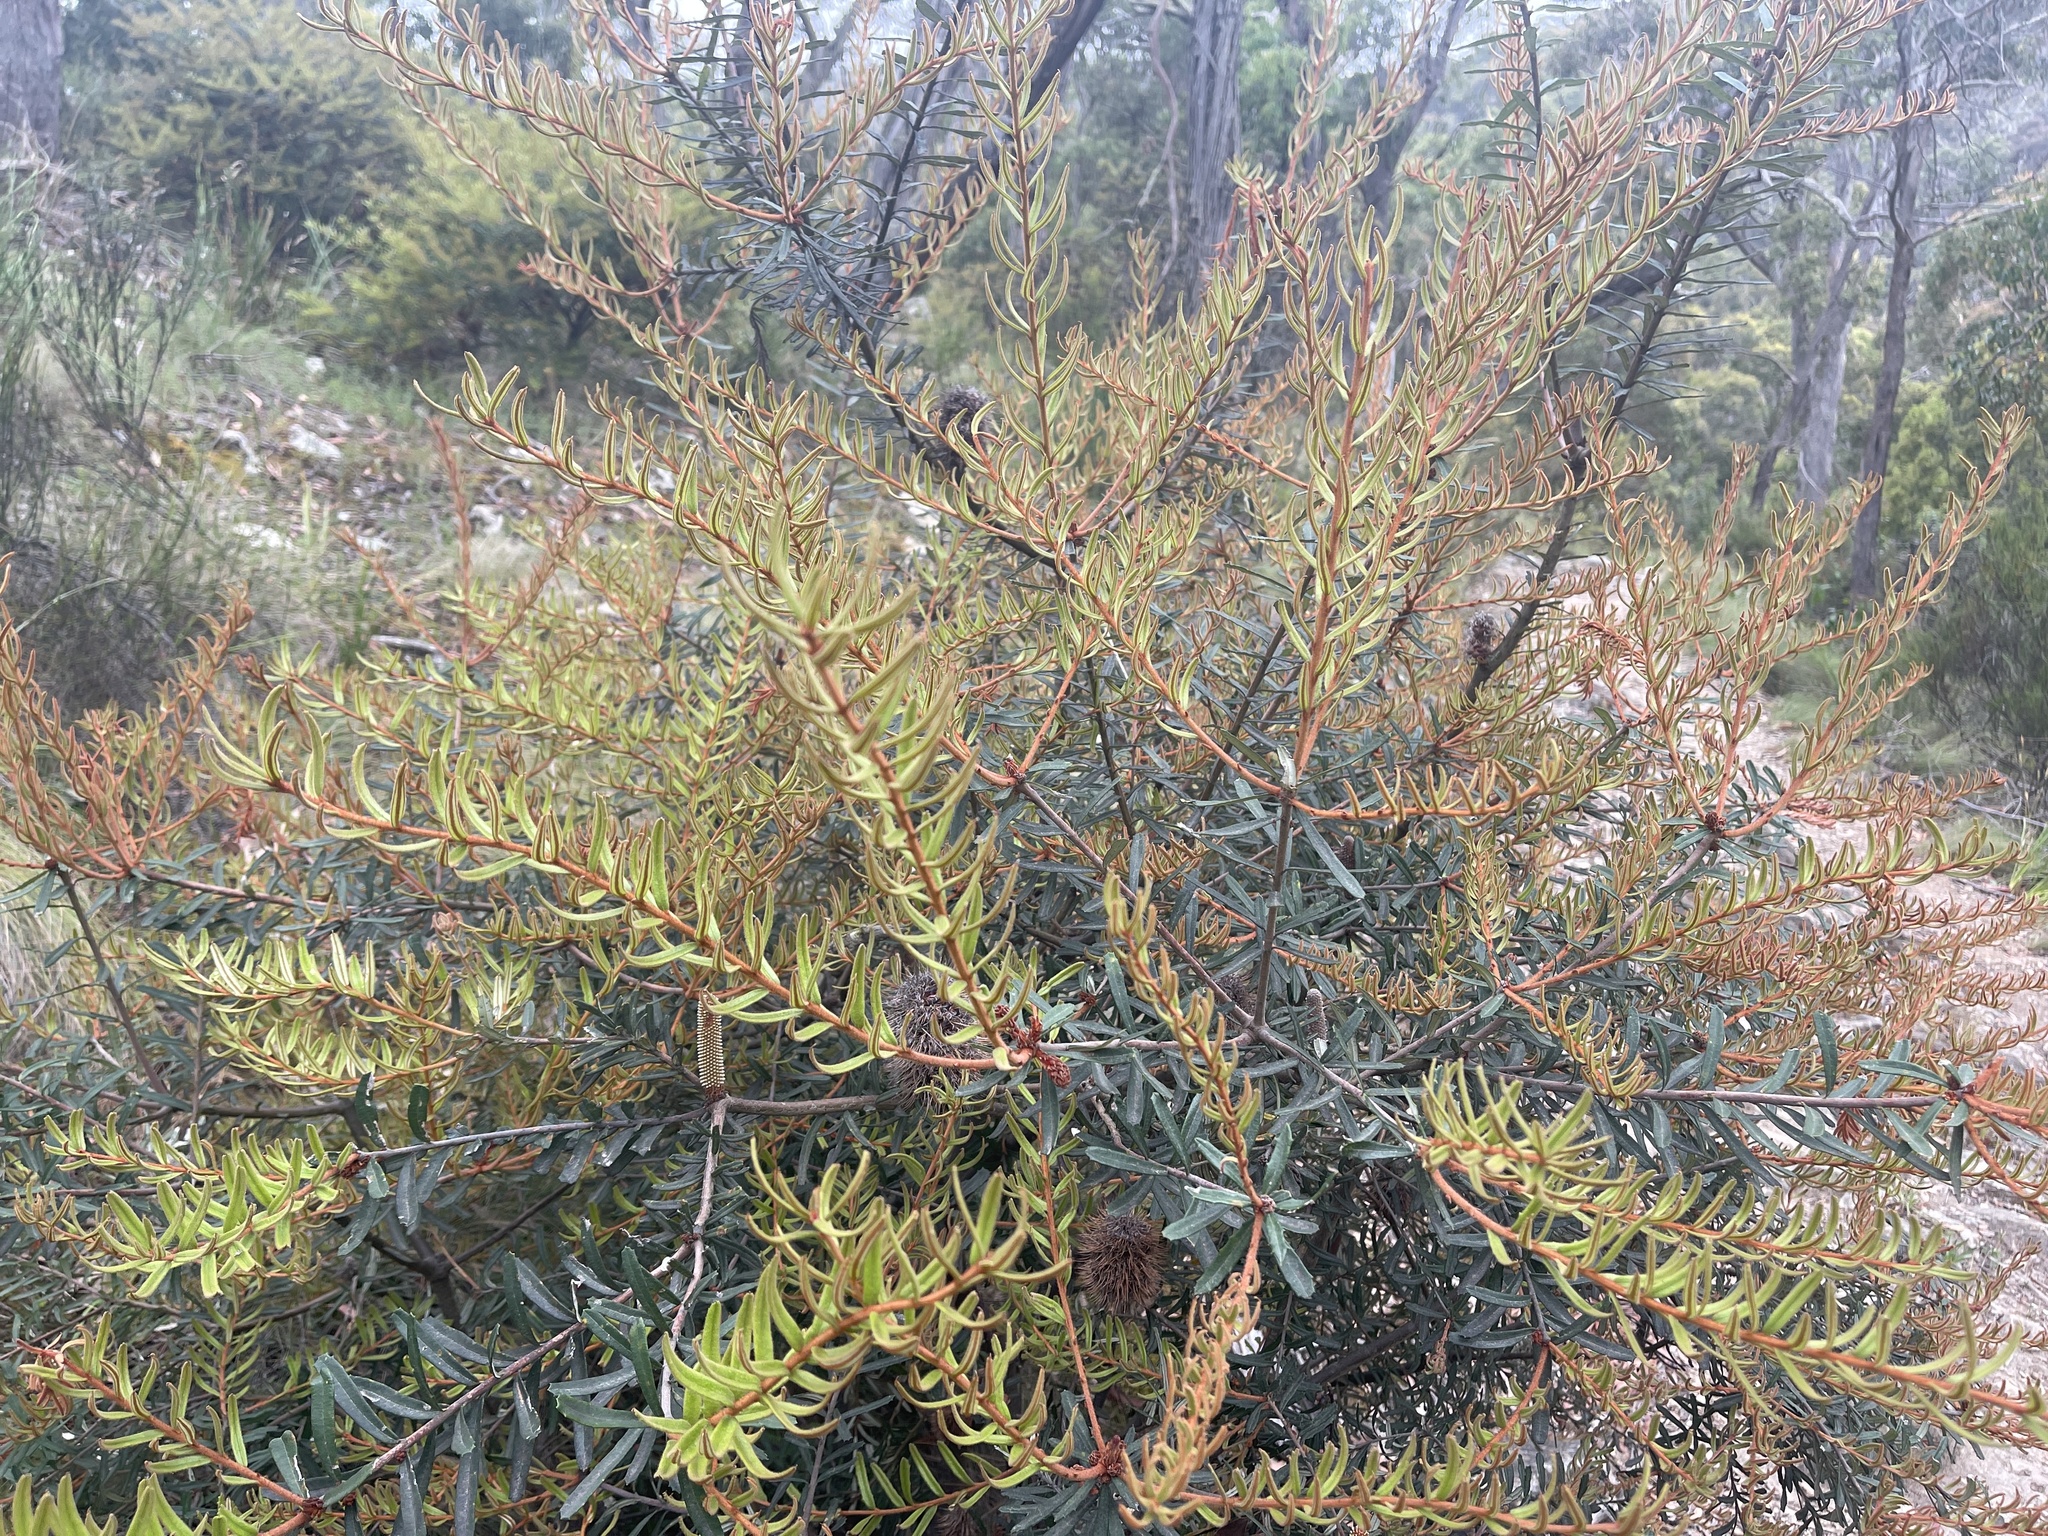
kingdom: Plantae
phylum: Tracheophyta
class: Magnoliopsida
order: Proteales
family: Proteaceae
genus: Banksia
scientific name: Banksia marginata
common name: Silver banksia
